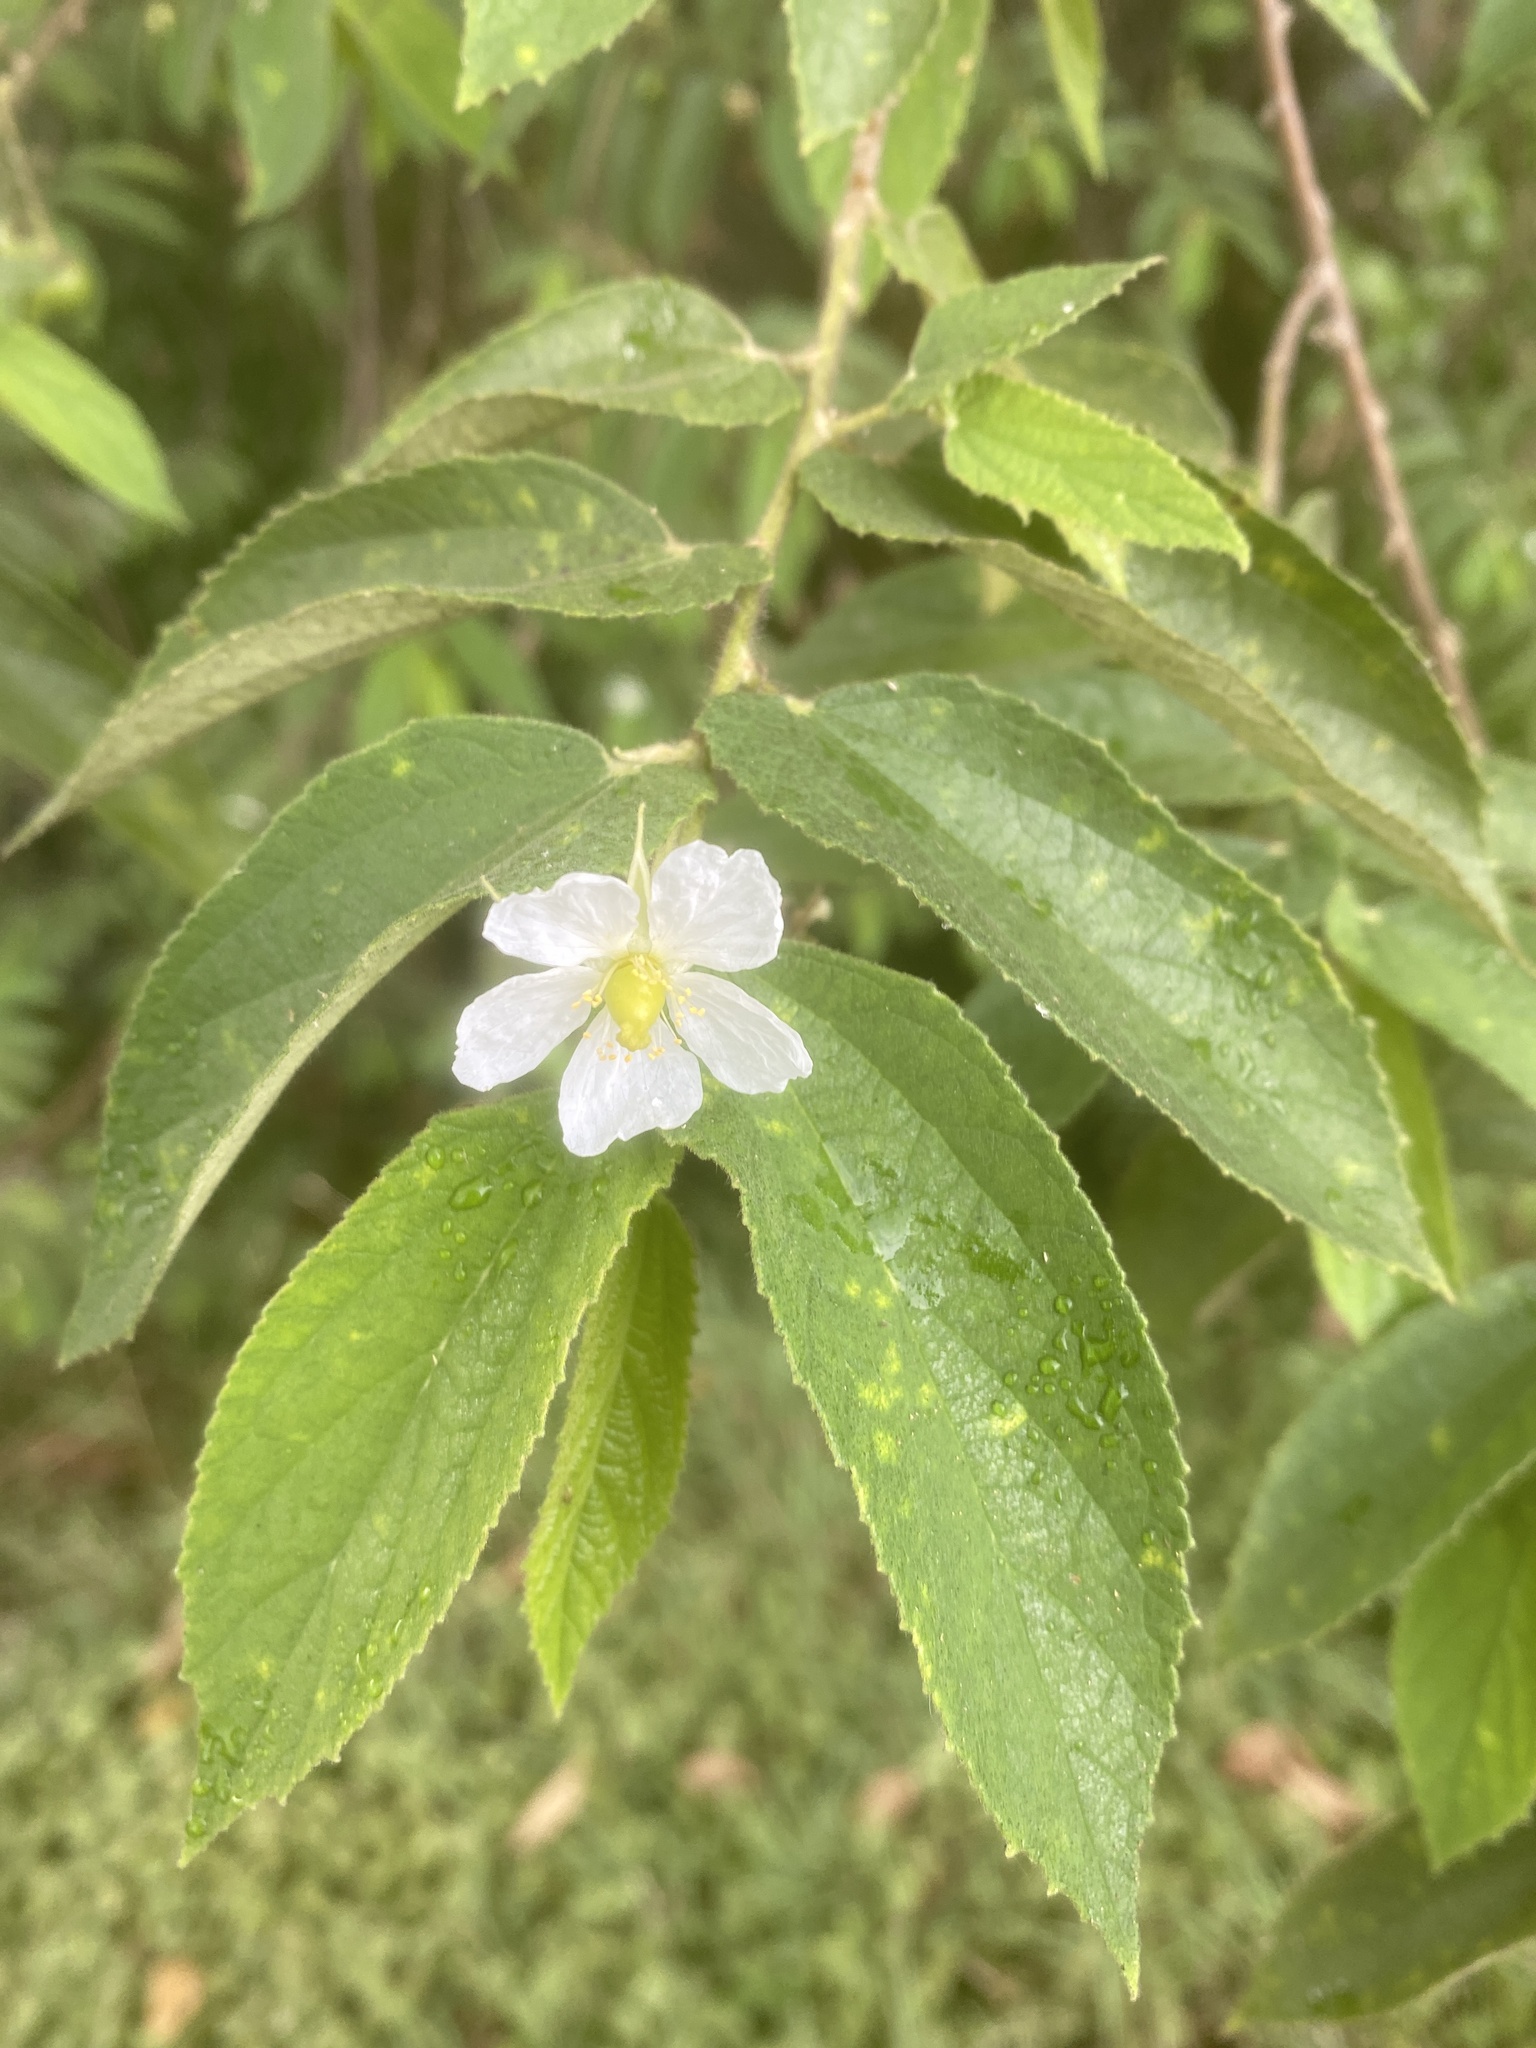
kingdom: Plantae
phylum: Tracheophyta
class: Magnoliopsida
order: Malvales
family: Muntingiaceae
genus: Muntingia
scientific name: Muntingia calabura
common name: Strawberrytree
